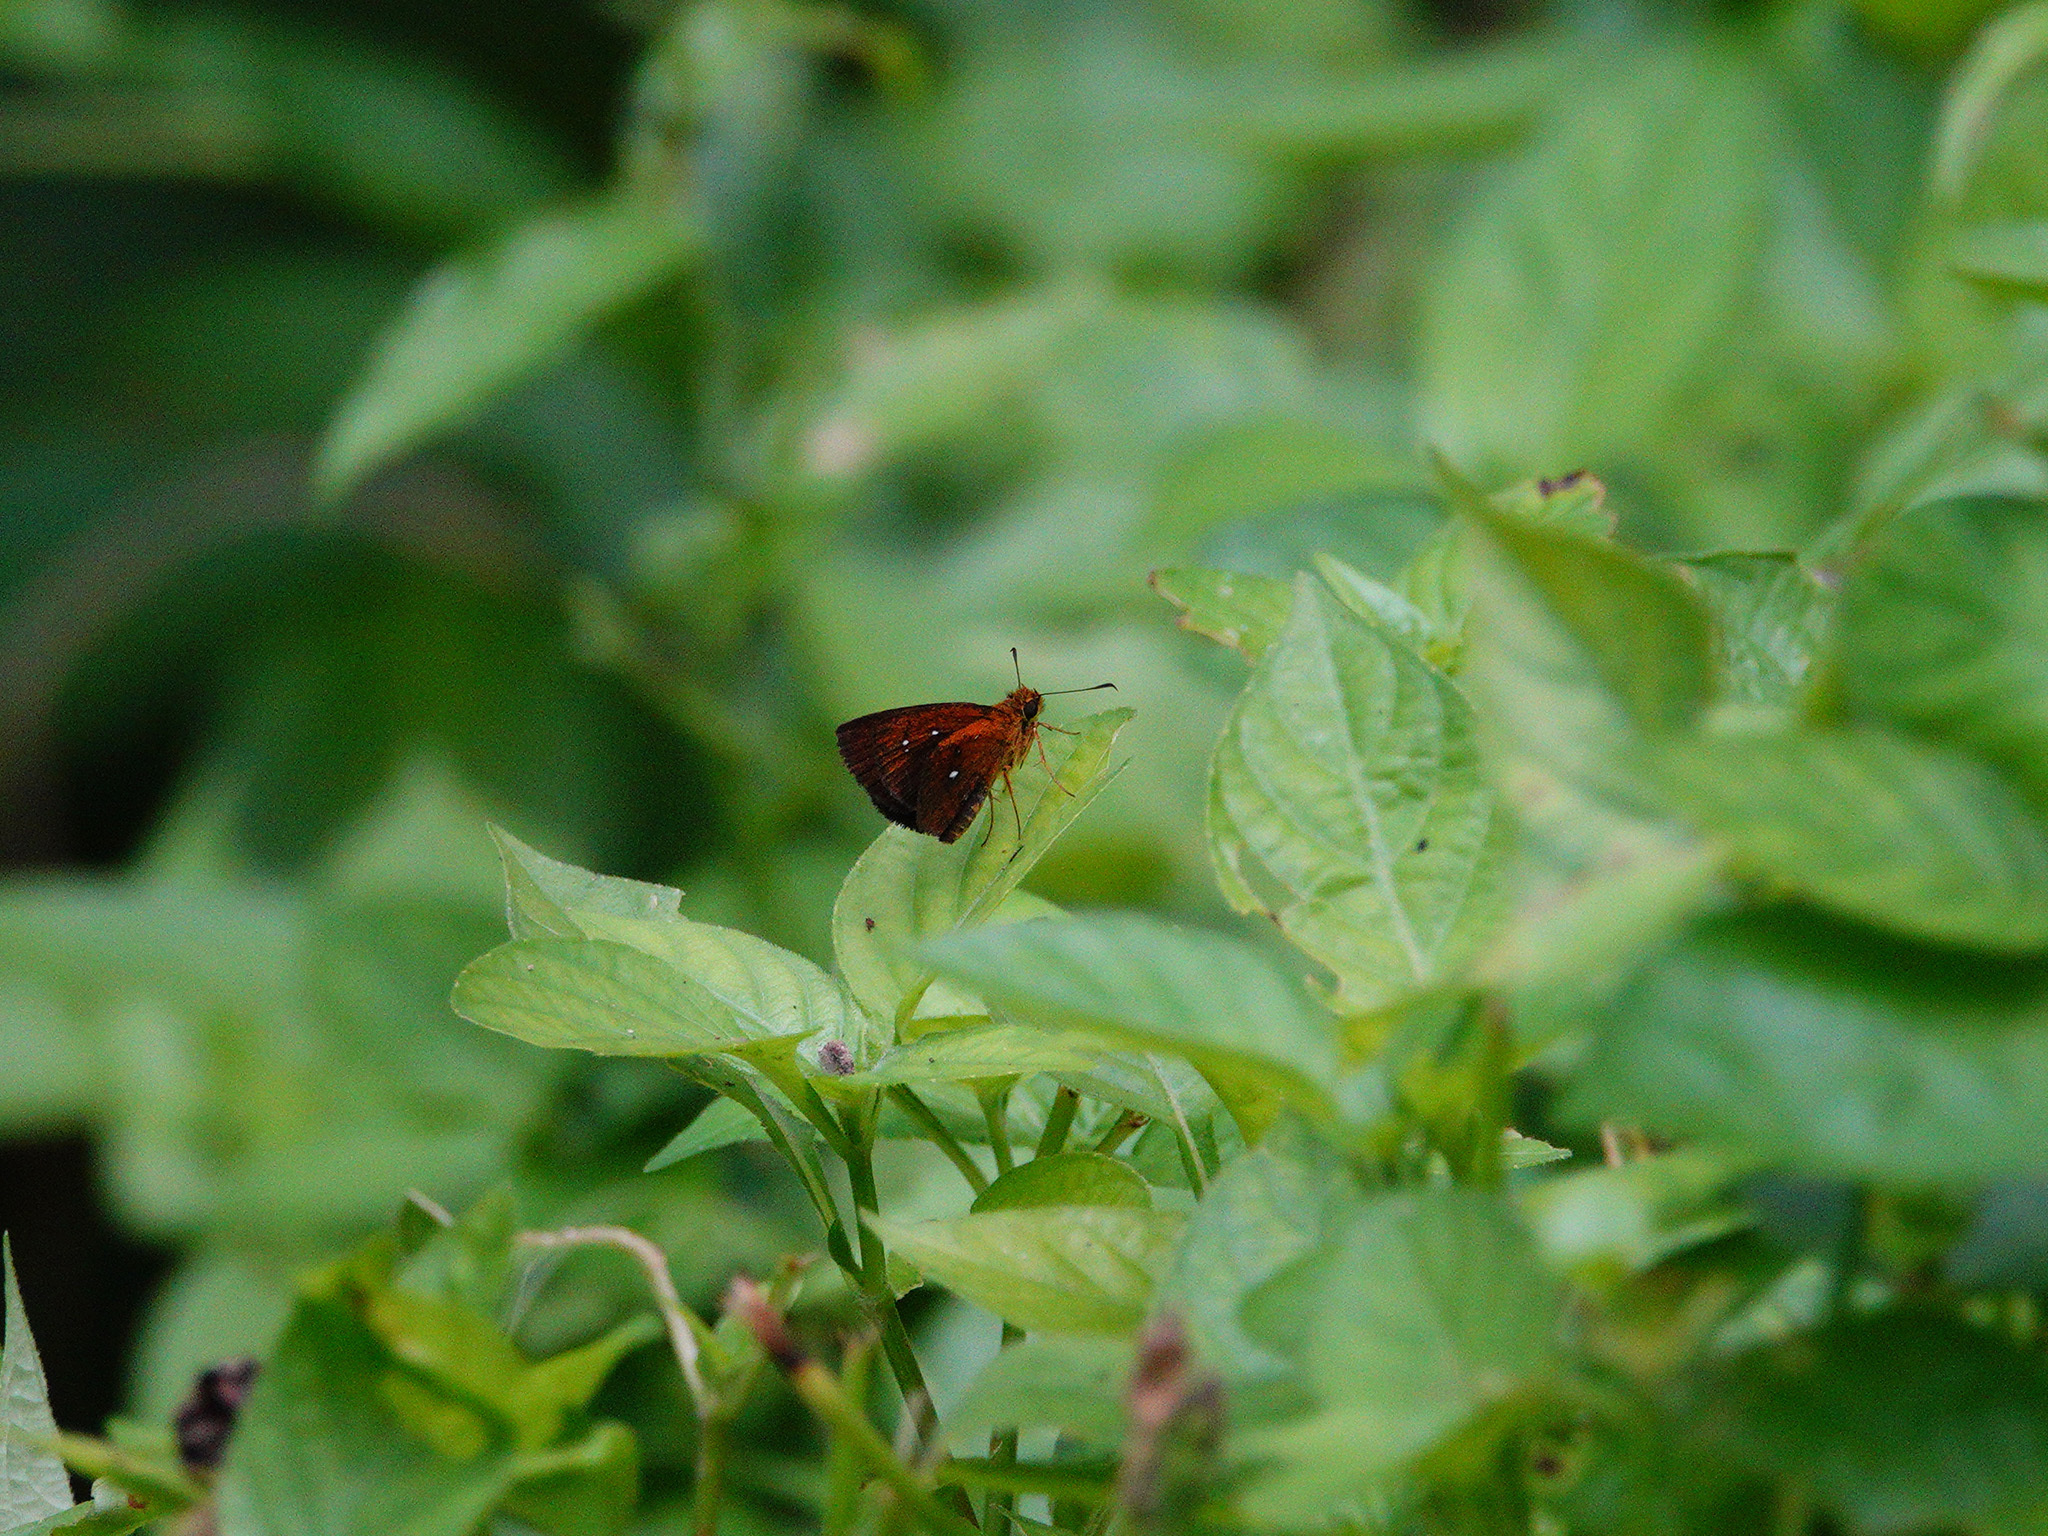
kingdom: Animalia
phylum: Arthropoda
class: Insecta
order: Lepidoptera
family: Hesperiidae
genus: Iambrix
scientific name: Iambrix salsala
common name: Chestnut bob
